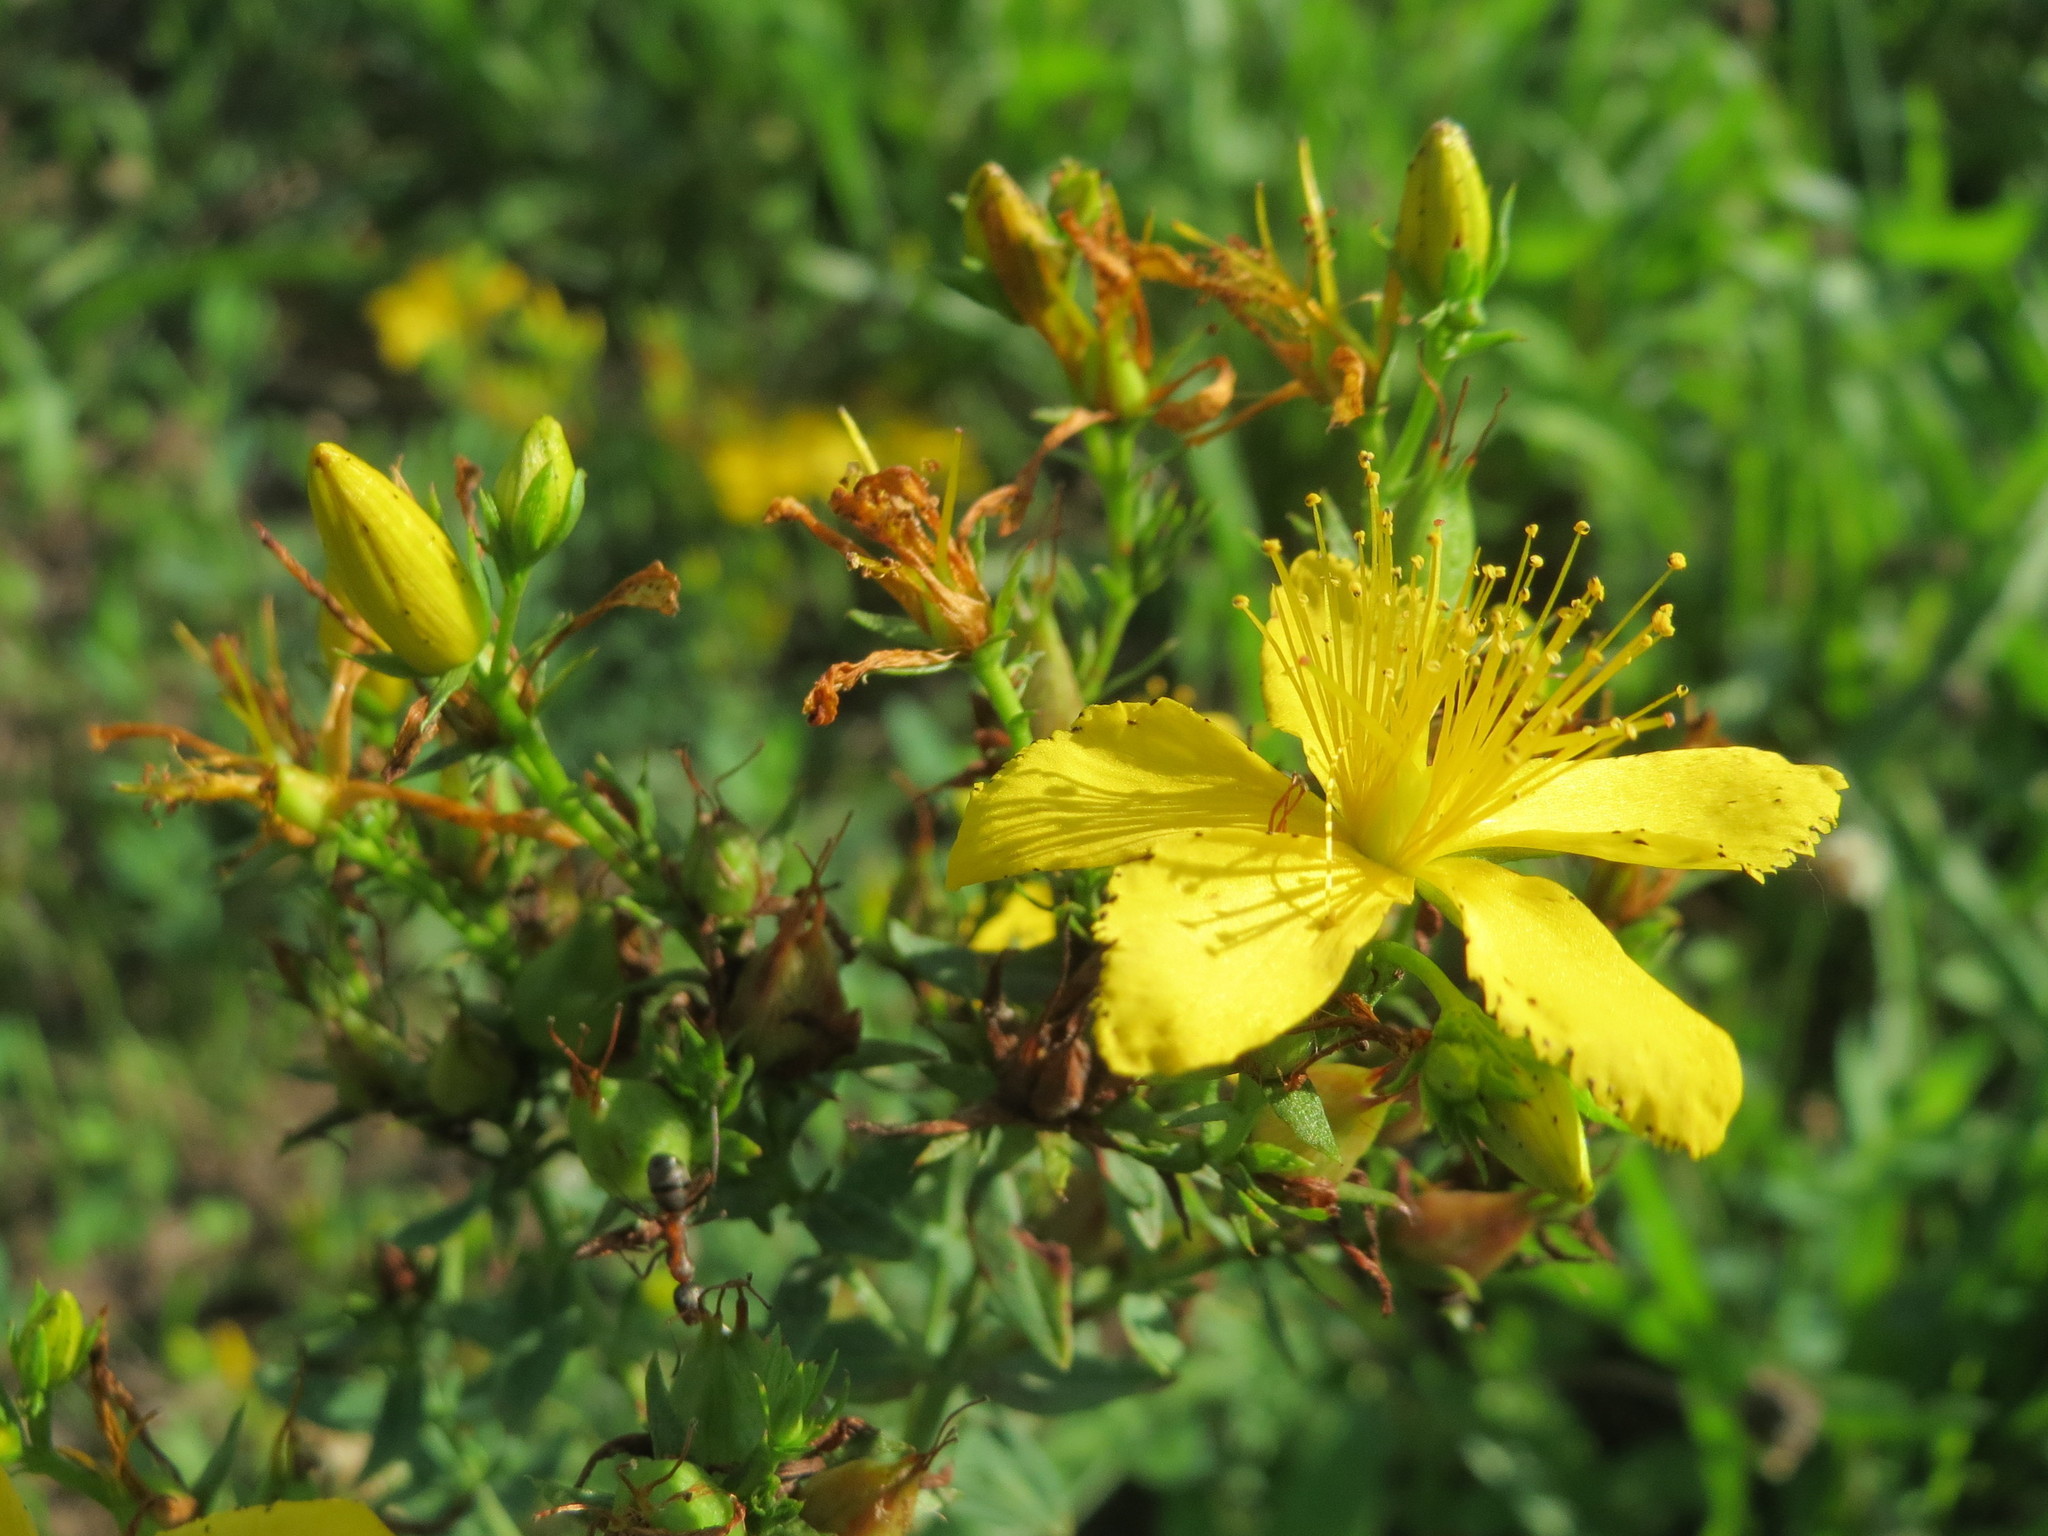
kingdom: Plantae
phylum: Tracheophyta
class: Magnoliopsida
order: Malpighiales
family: Hypericaceae
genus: Hypericum
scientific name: Hypericum perforatum
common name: Common st. johnswort
